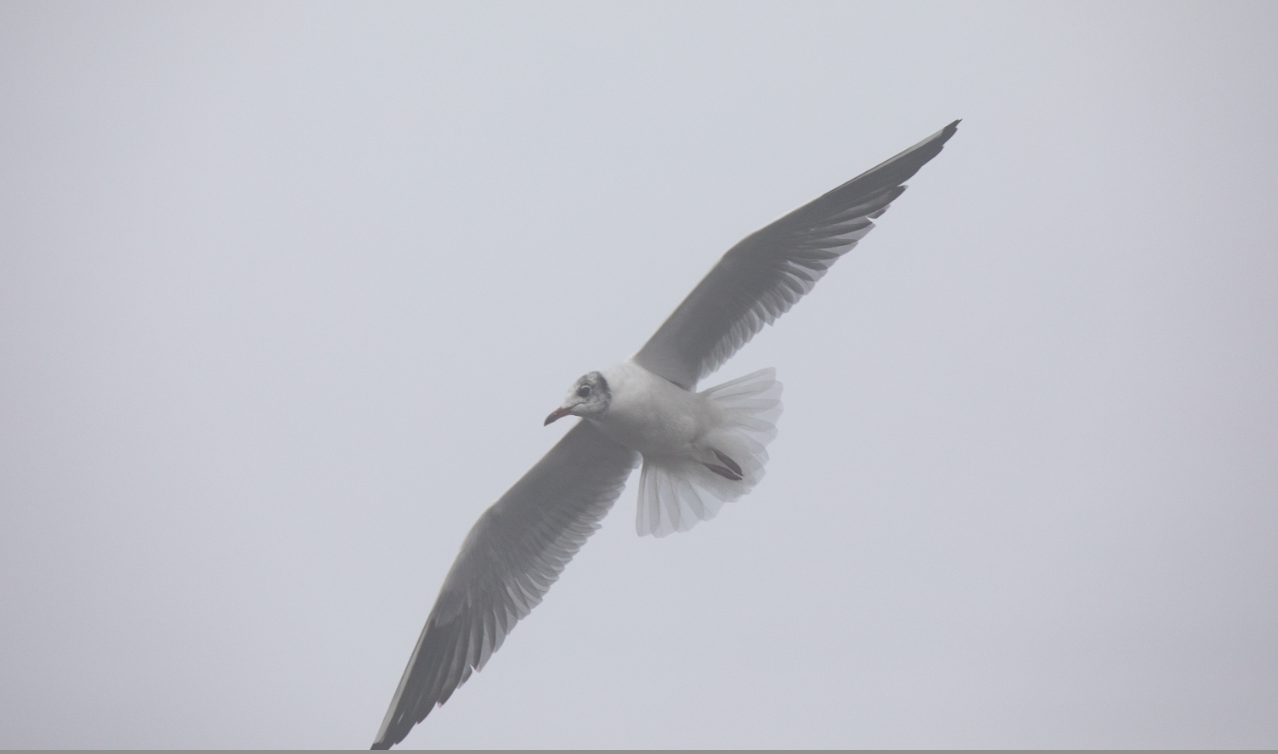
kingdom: Animalia
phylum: Chordata
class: Aves
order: Charadriiformes
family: Laridae
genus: Chroicocephalus
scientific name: Chroicocephalus ridibundus
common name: Black-headed gull
